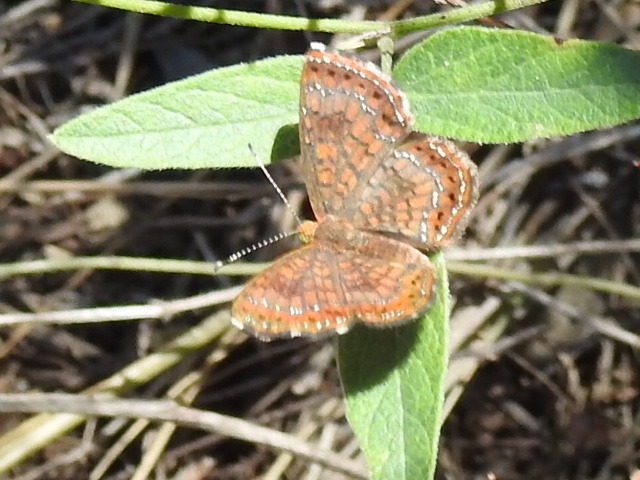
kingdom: Animalia
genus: Calephelis
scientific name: Calephelis nemesis
